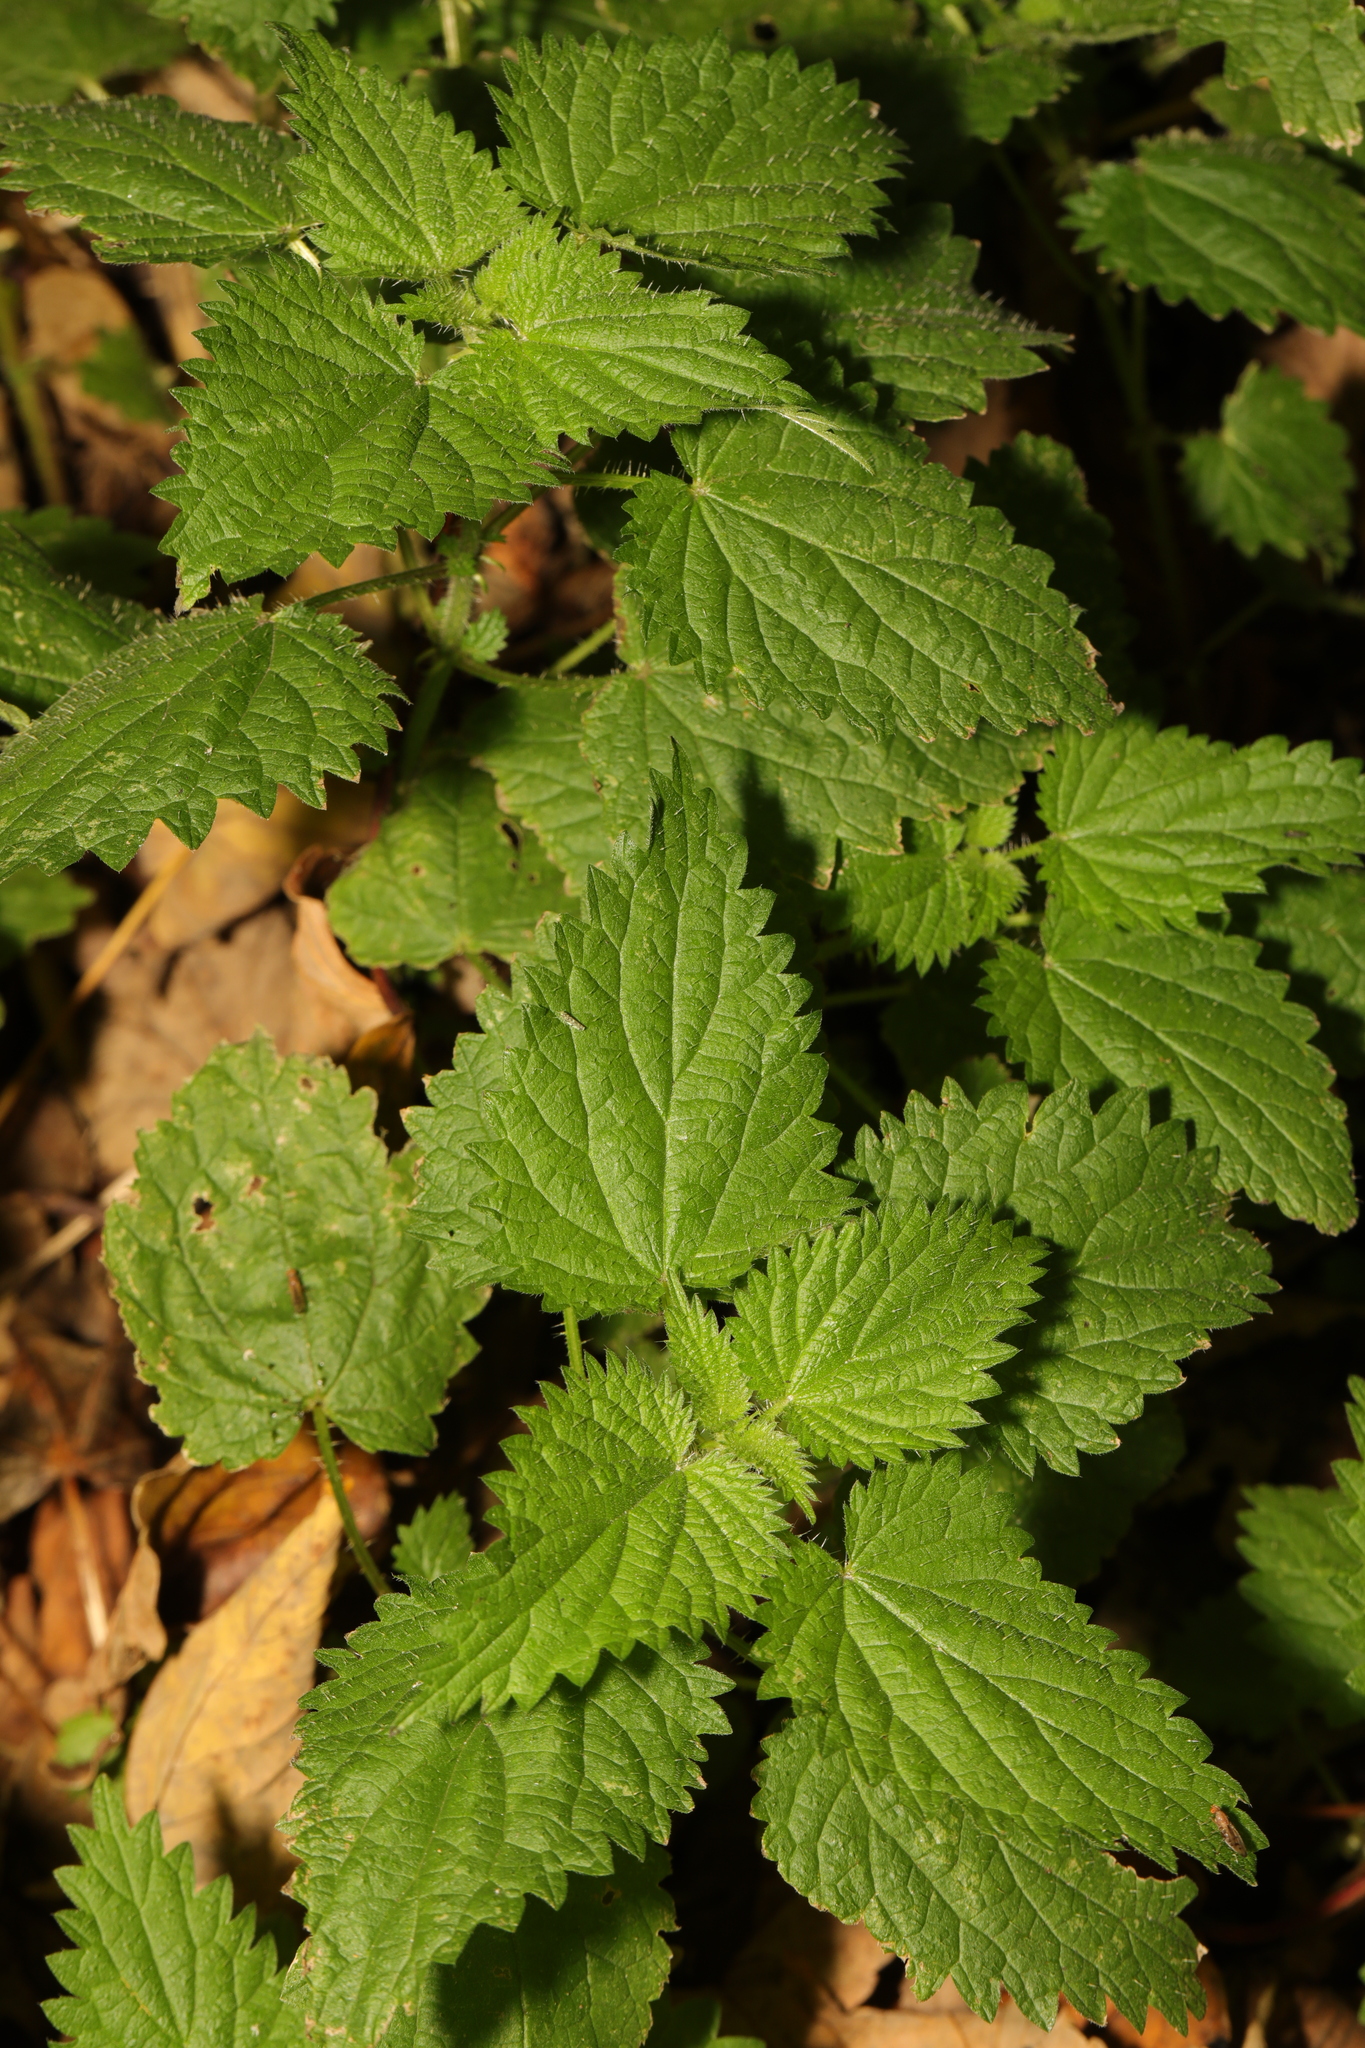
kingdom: Plantae
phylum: Tracheophyta
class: Magnoliopsida
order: Rosales
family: Urticaceae
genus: Urtica
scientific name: Urtica dioica
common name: Common nettle
